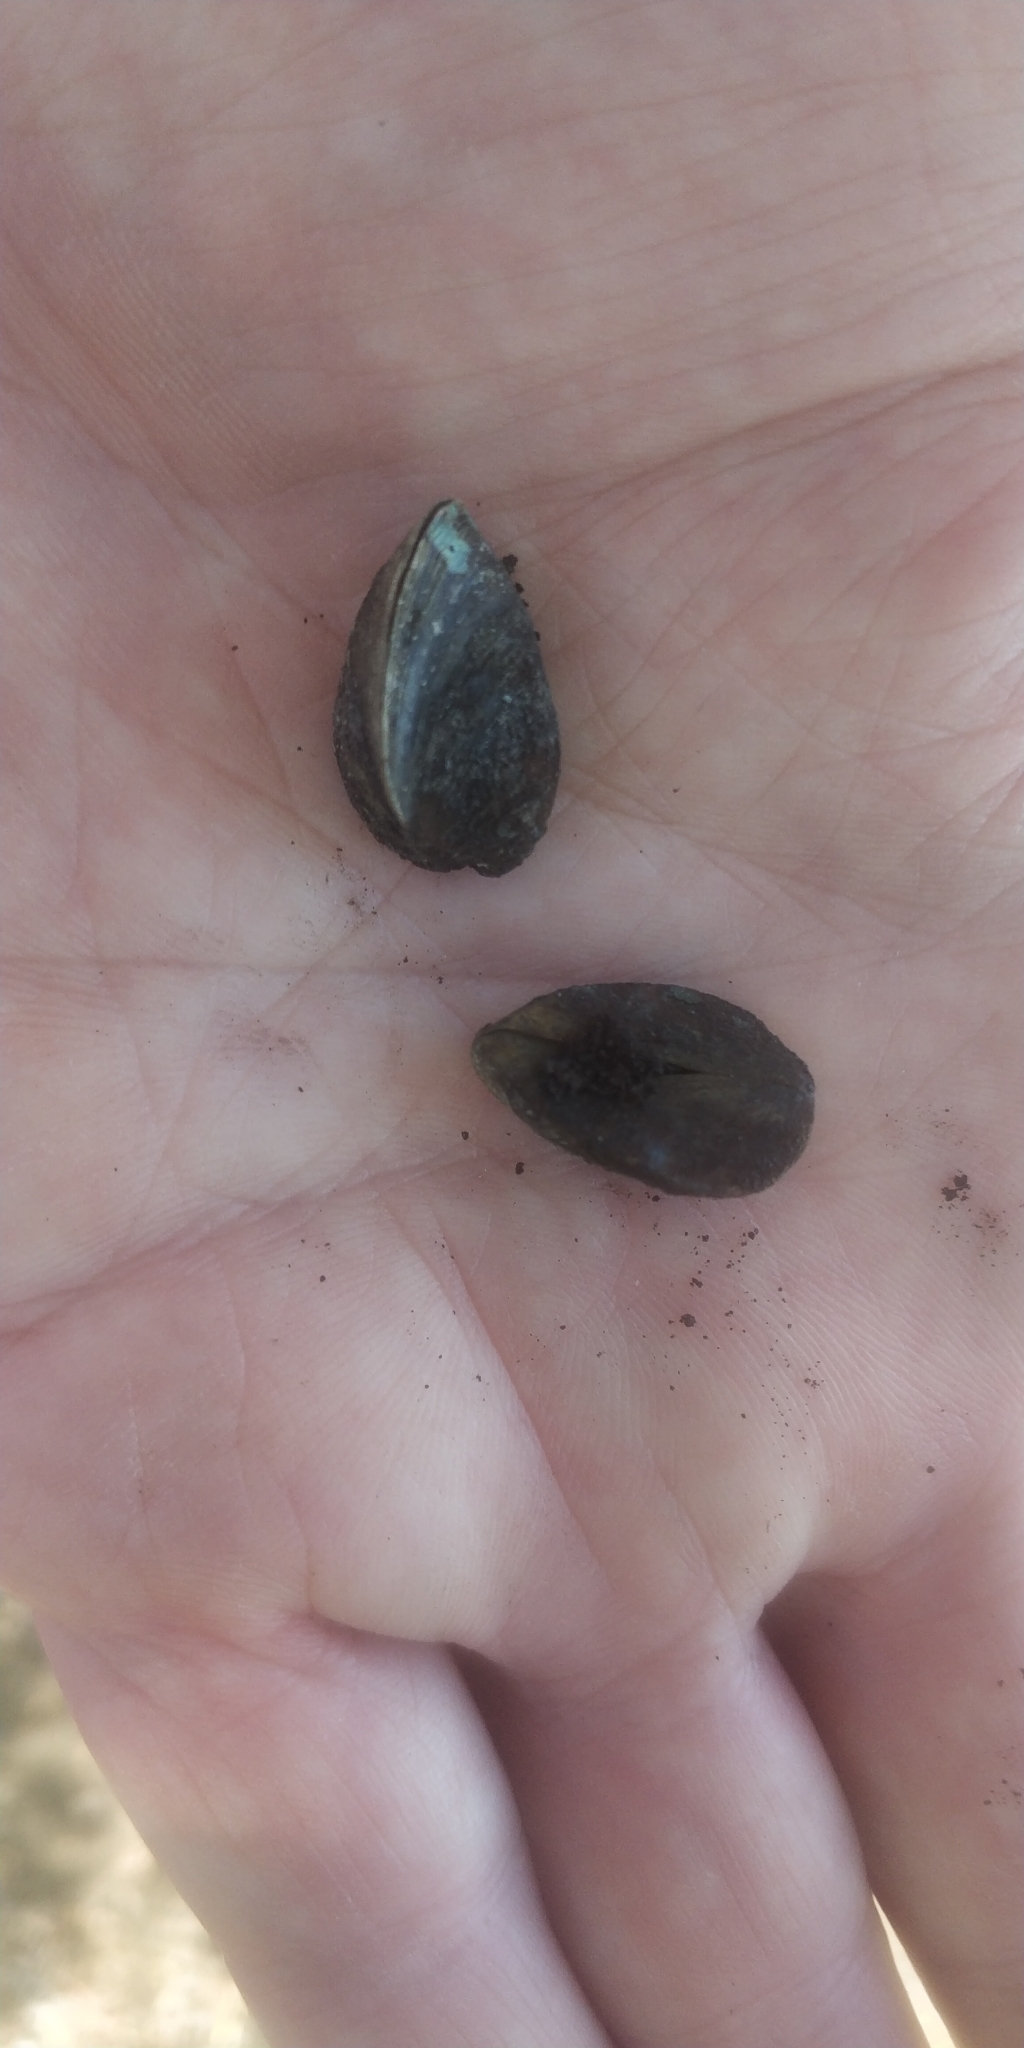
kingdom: Animalia
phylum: Mollusca
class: Bivalvia
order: Myida
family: Dreissenidae
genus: Dreissena
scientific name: Dreissena polymorpha
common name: Zebra mussel
